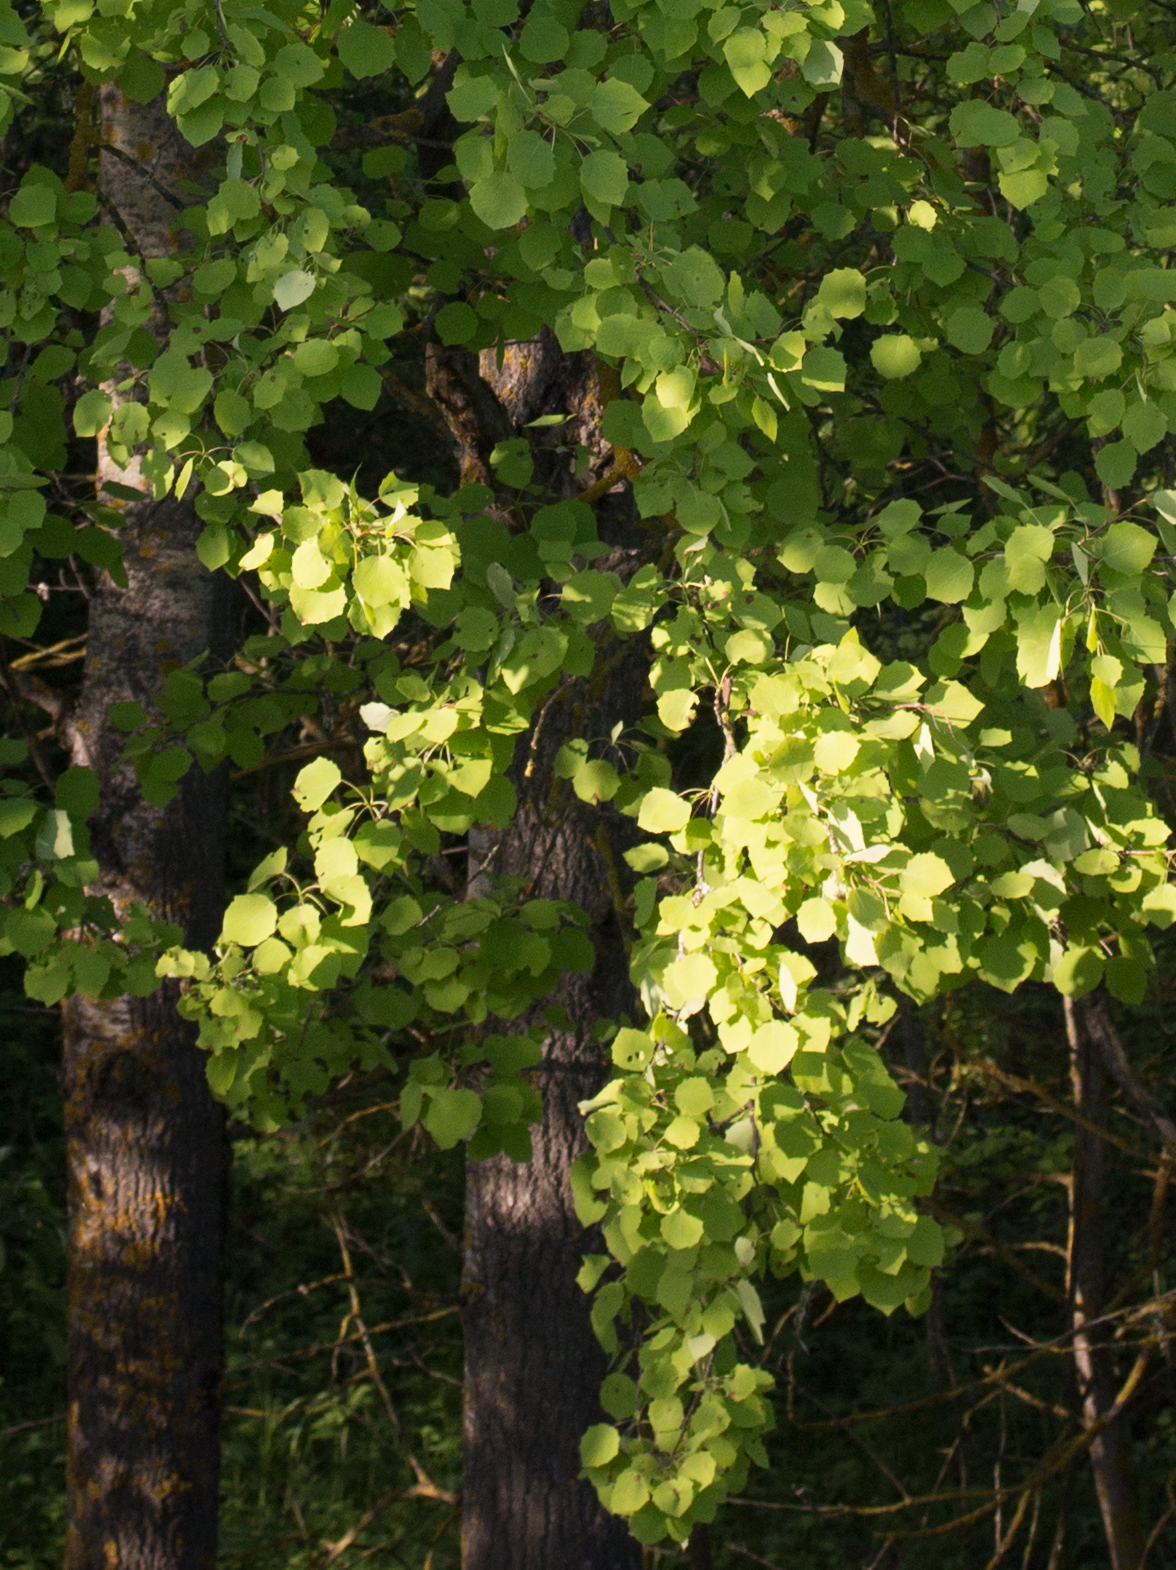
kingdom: Plantae
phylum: Tracheophyta
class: Magnoliopsida
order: Malpighiales
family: Salicaceae
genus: Populus
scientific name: Populus tremula
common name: European aspen
